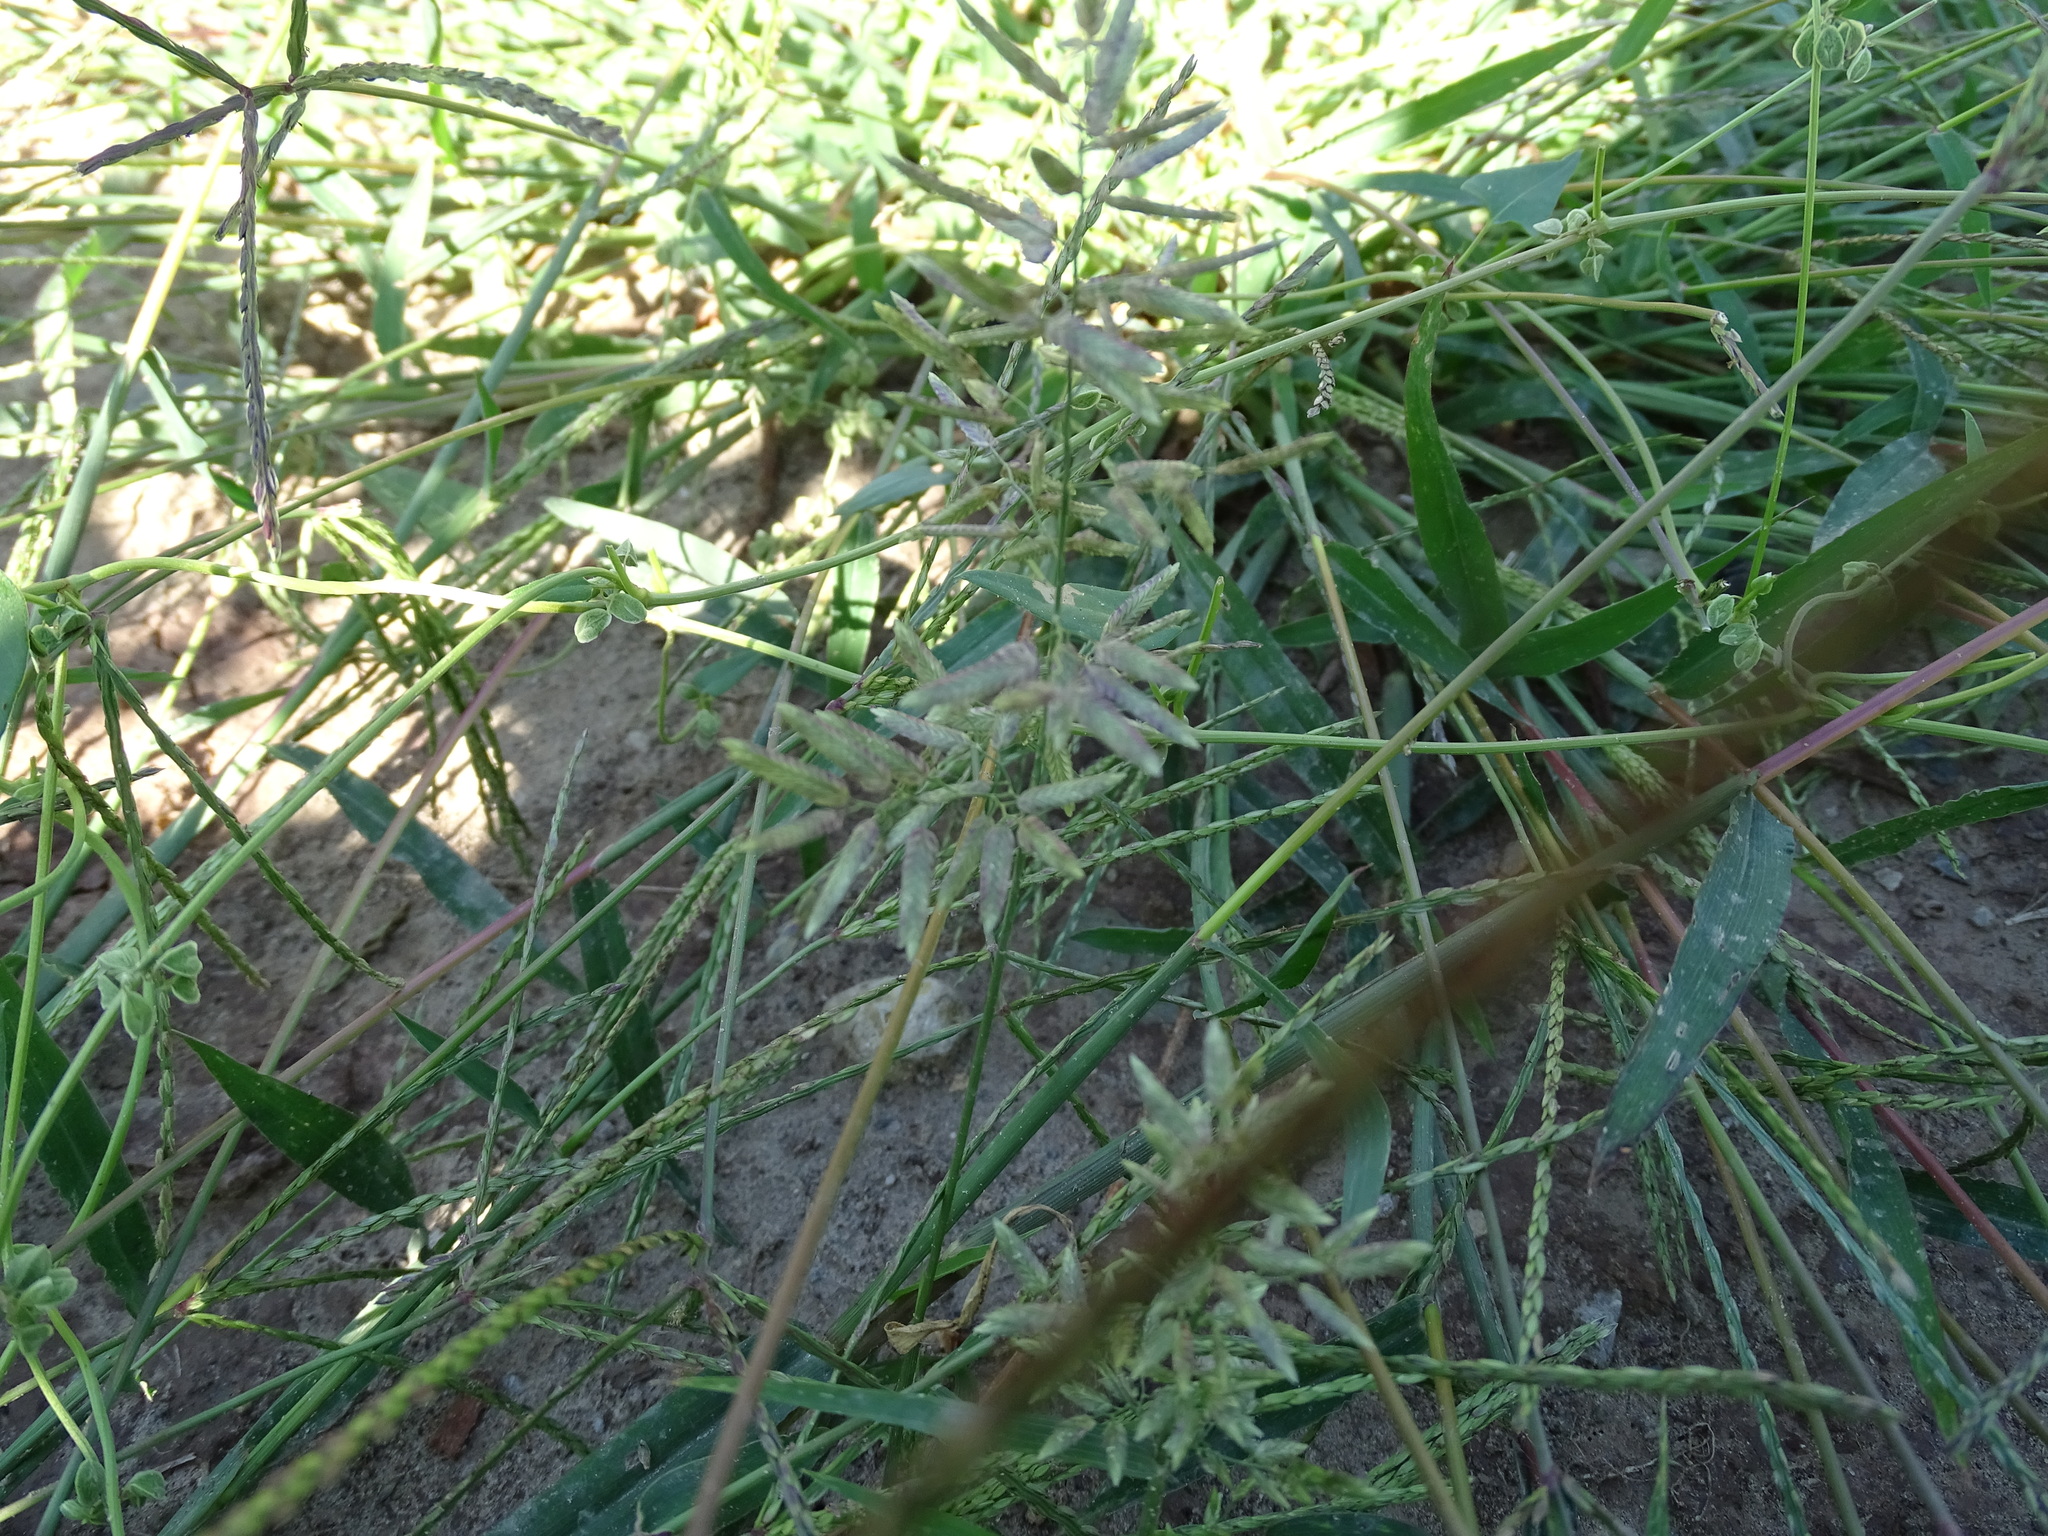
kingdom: Plantae
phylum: Tracheophyta
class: Liliopsida
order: Poales
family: Poaceae
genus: Eragrostis
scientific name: Eragrostis cilianensis
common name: Stinkgrass
